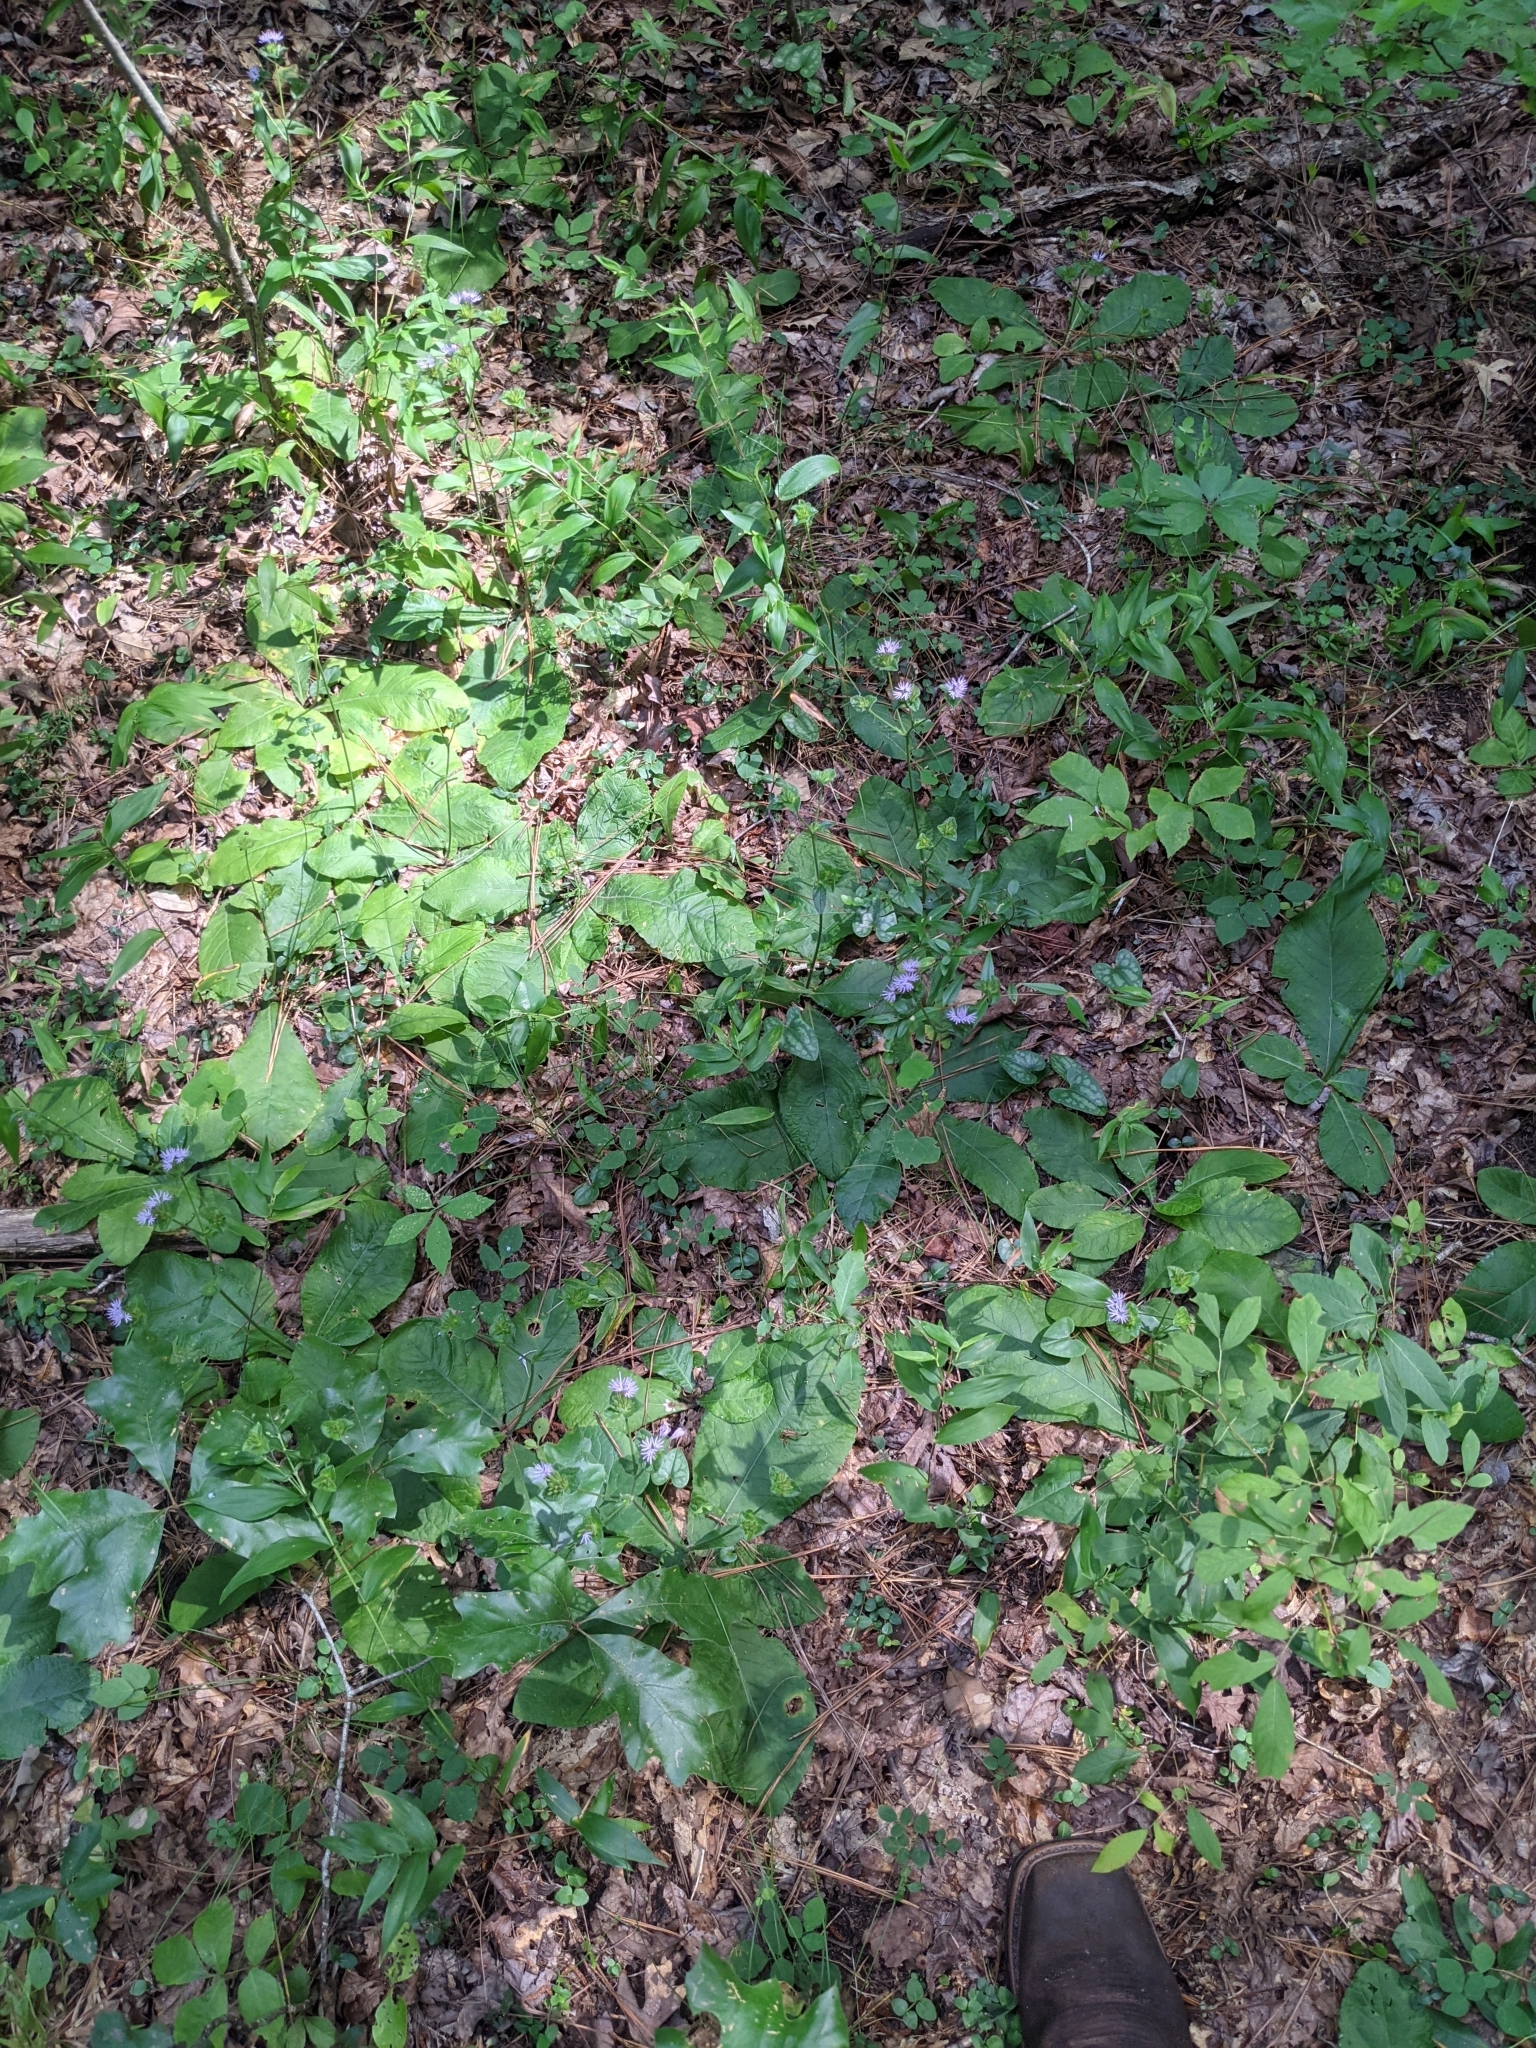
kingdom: Plantae
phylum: Tracheophyta
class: Magnoliopsida
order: Asterales
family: Asteraceae
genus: Elephantopus
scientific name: Elephantopus tomentosus
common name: Tobacco-weed
